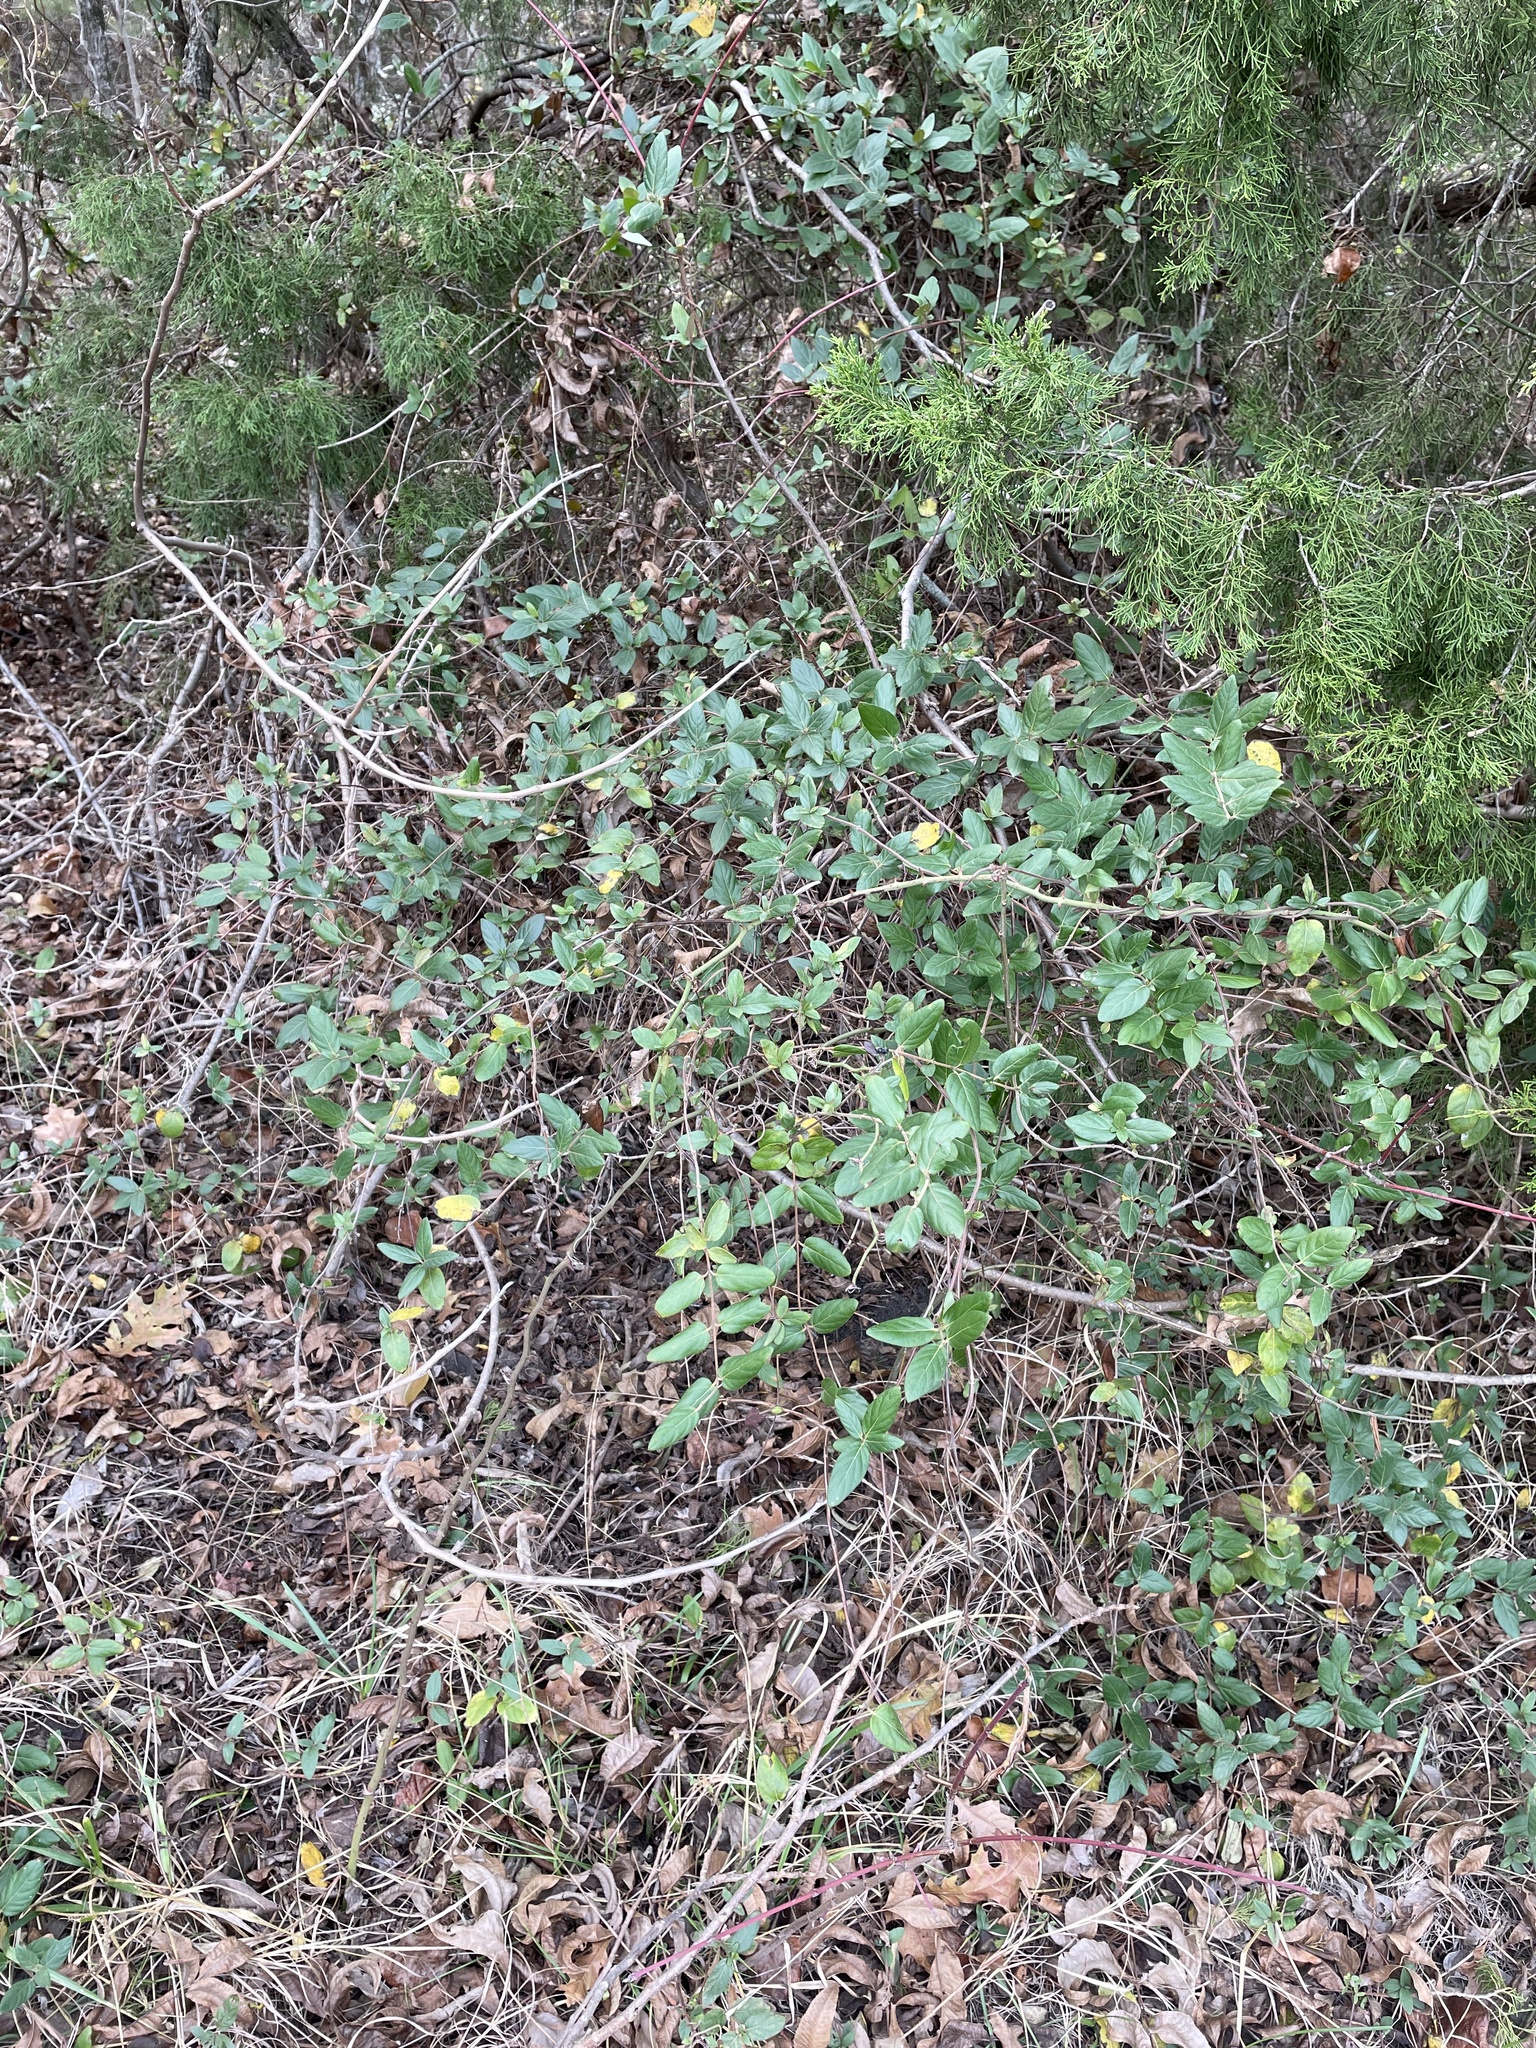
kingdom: Plantae
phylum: Tracheophyta
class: Magnoliopsida
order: Dipsacales
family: Caprifoliaceae
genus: Lonicera
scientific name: Lonicera japonica
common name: Japanese honeysuckle
